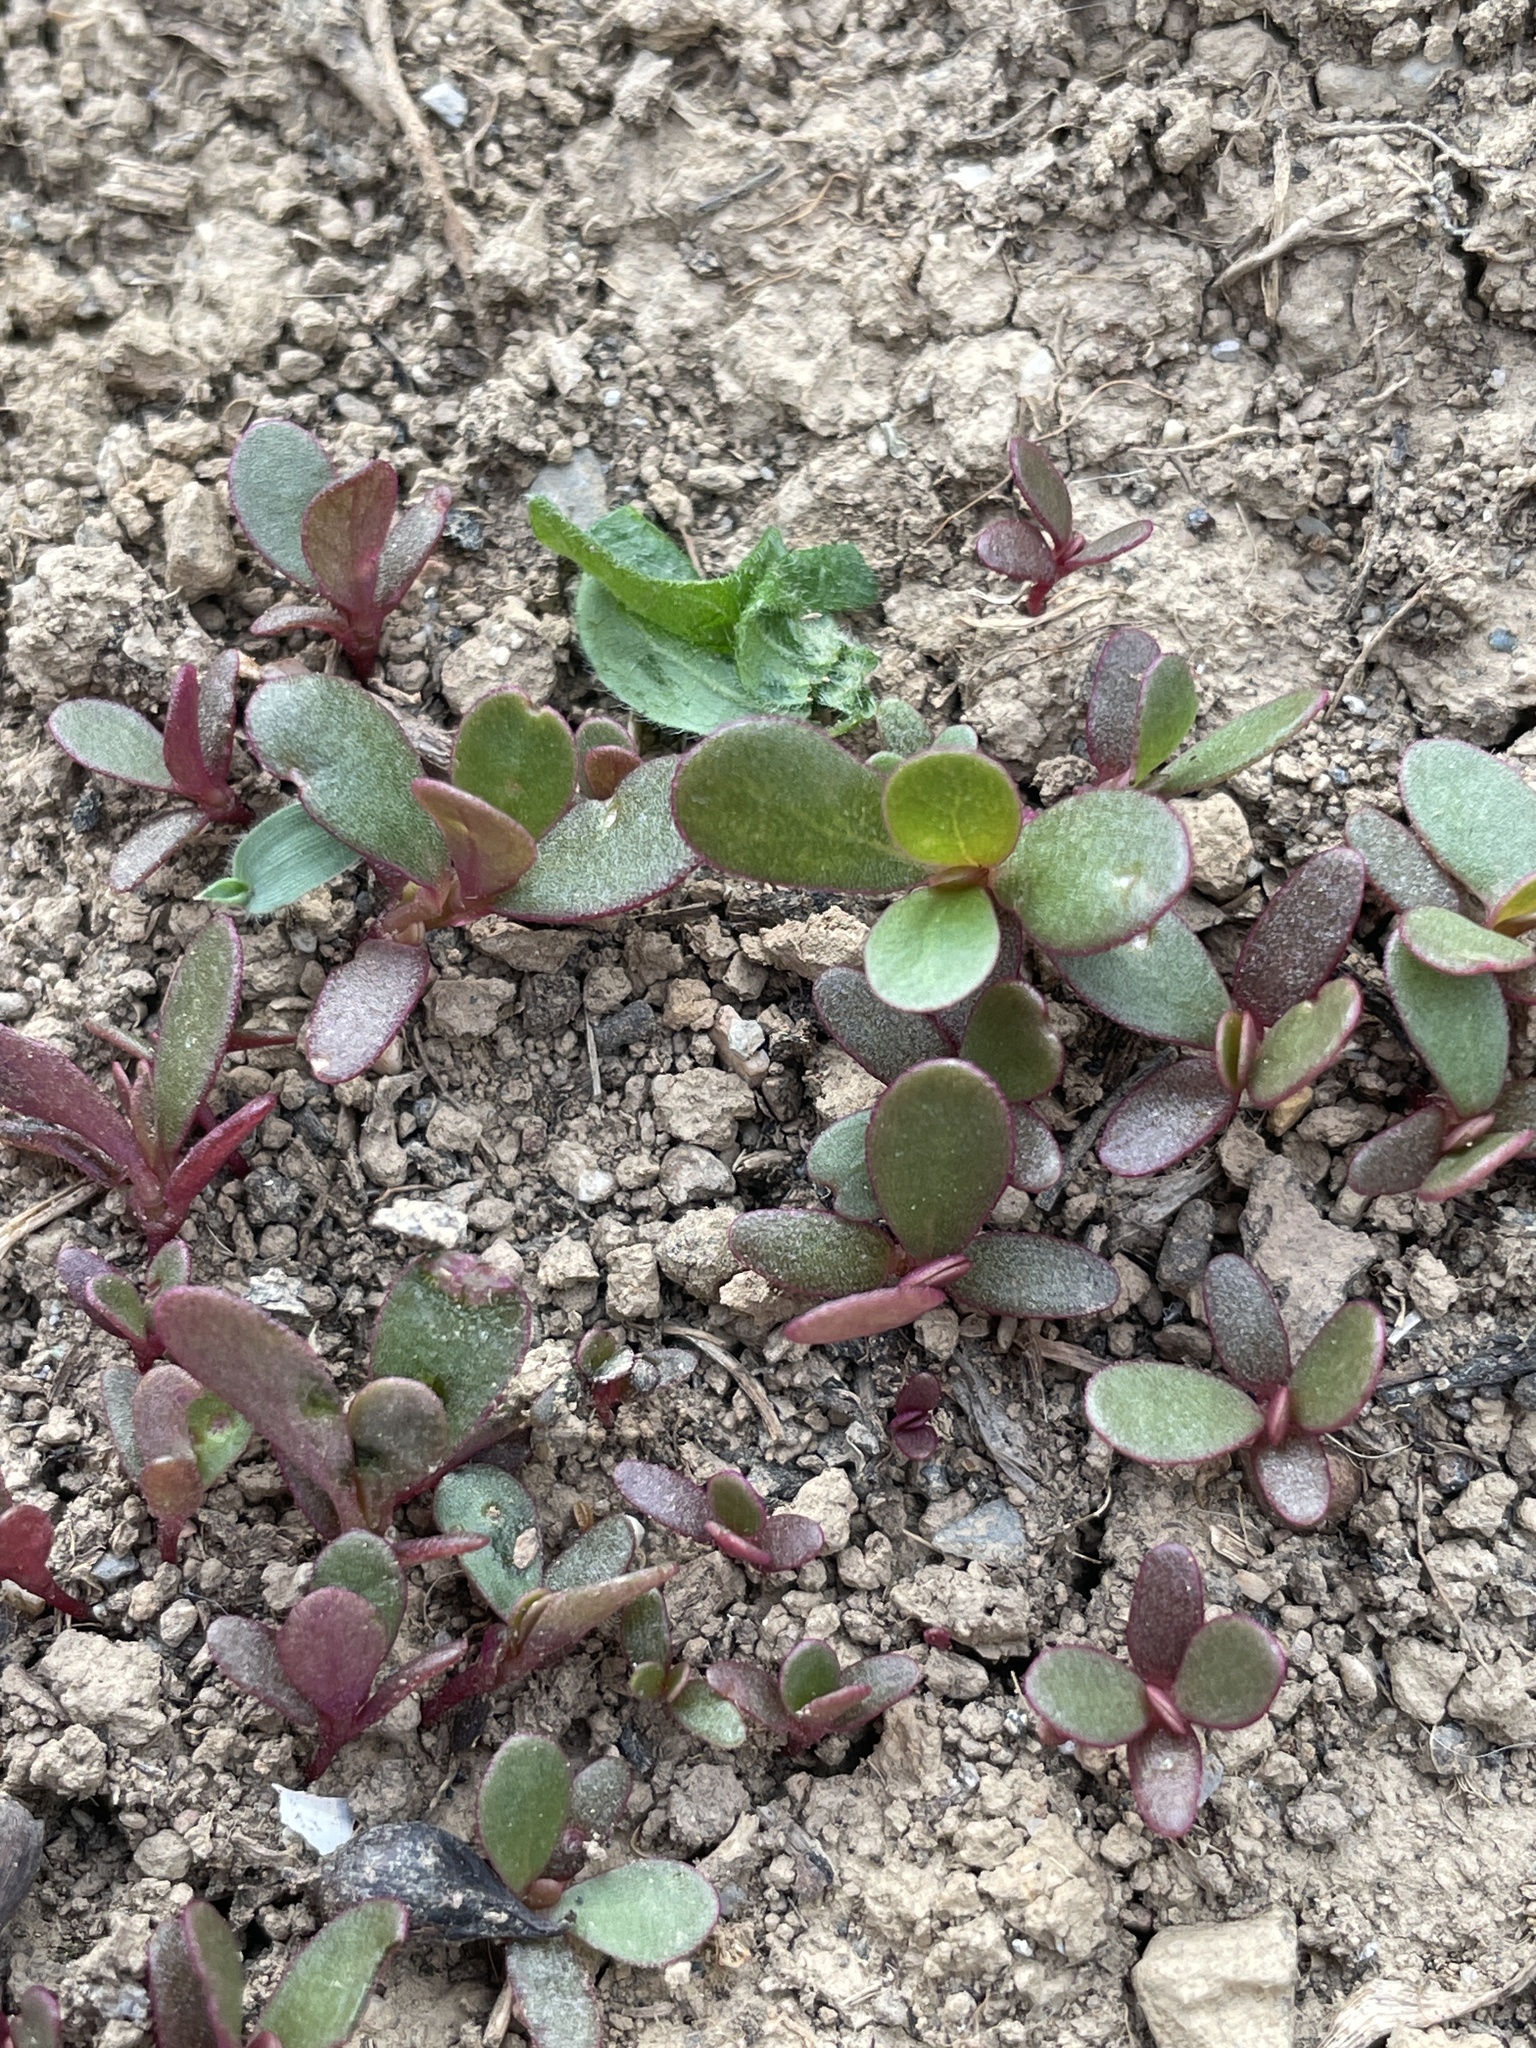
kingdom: Plantae
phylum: Tracheophyta
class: Magnoliopsida
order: Caryophyllales
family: Portulacaceae
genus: Portulaca
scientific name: Portulaca oleracea
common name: Common purslane
